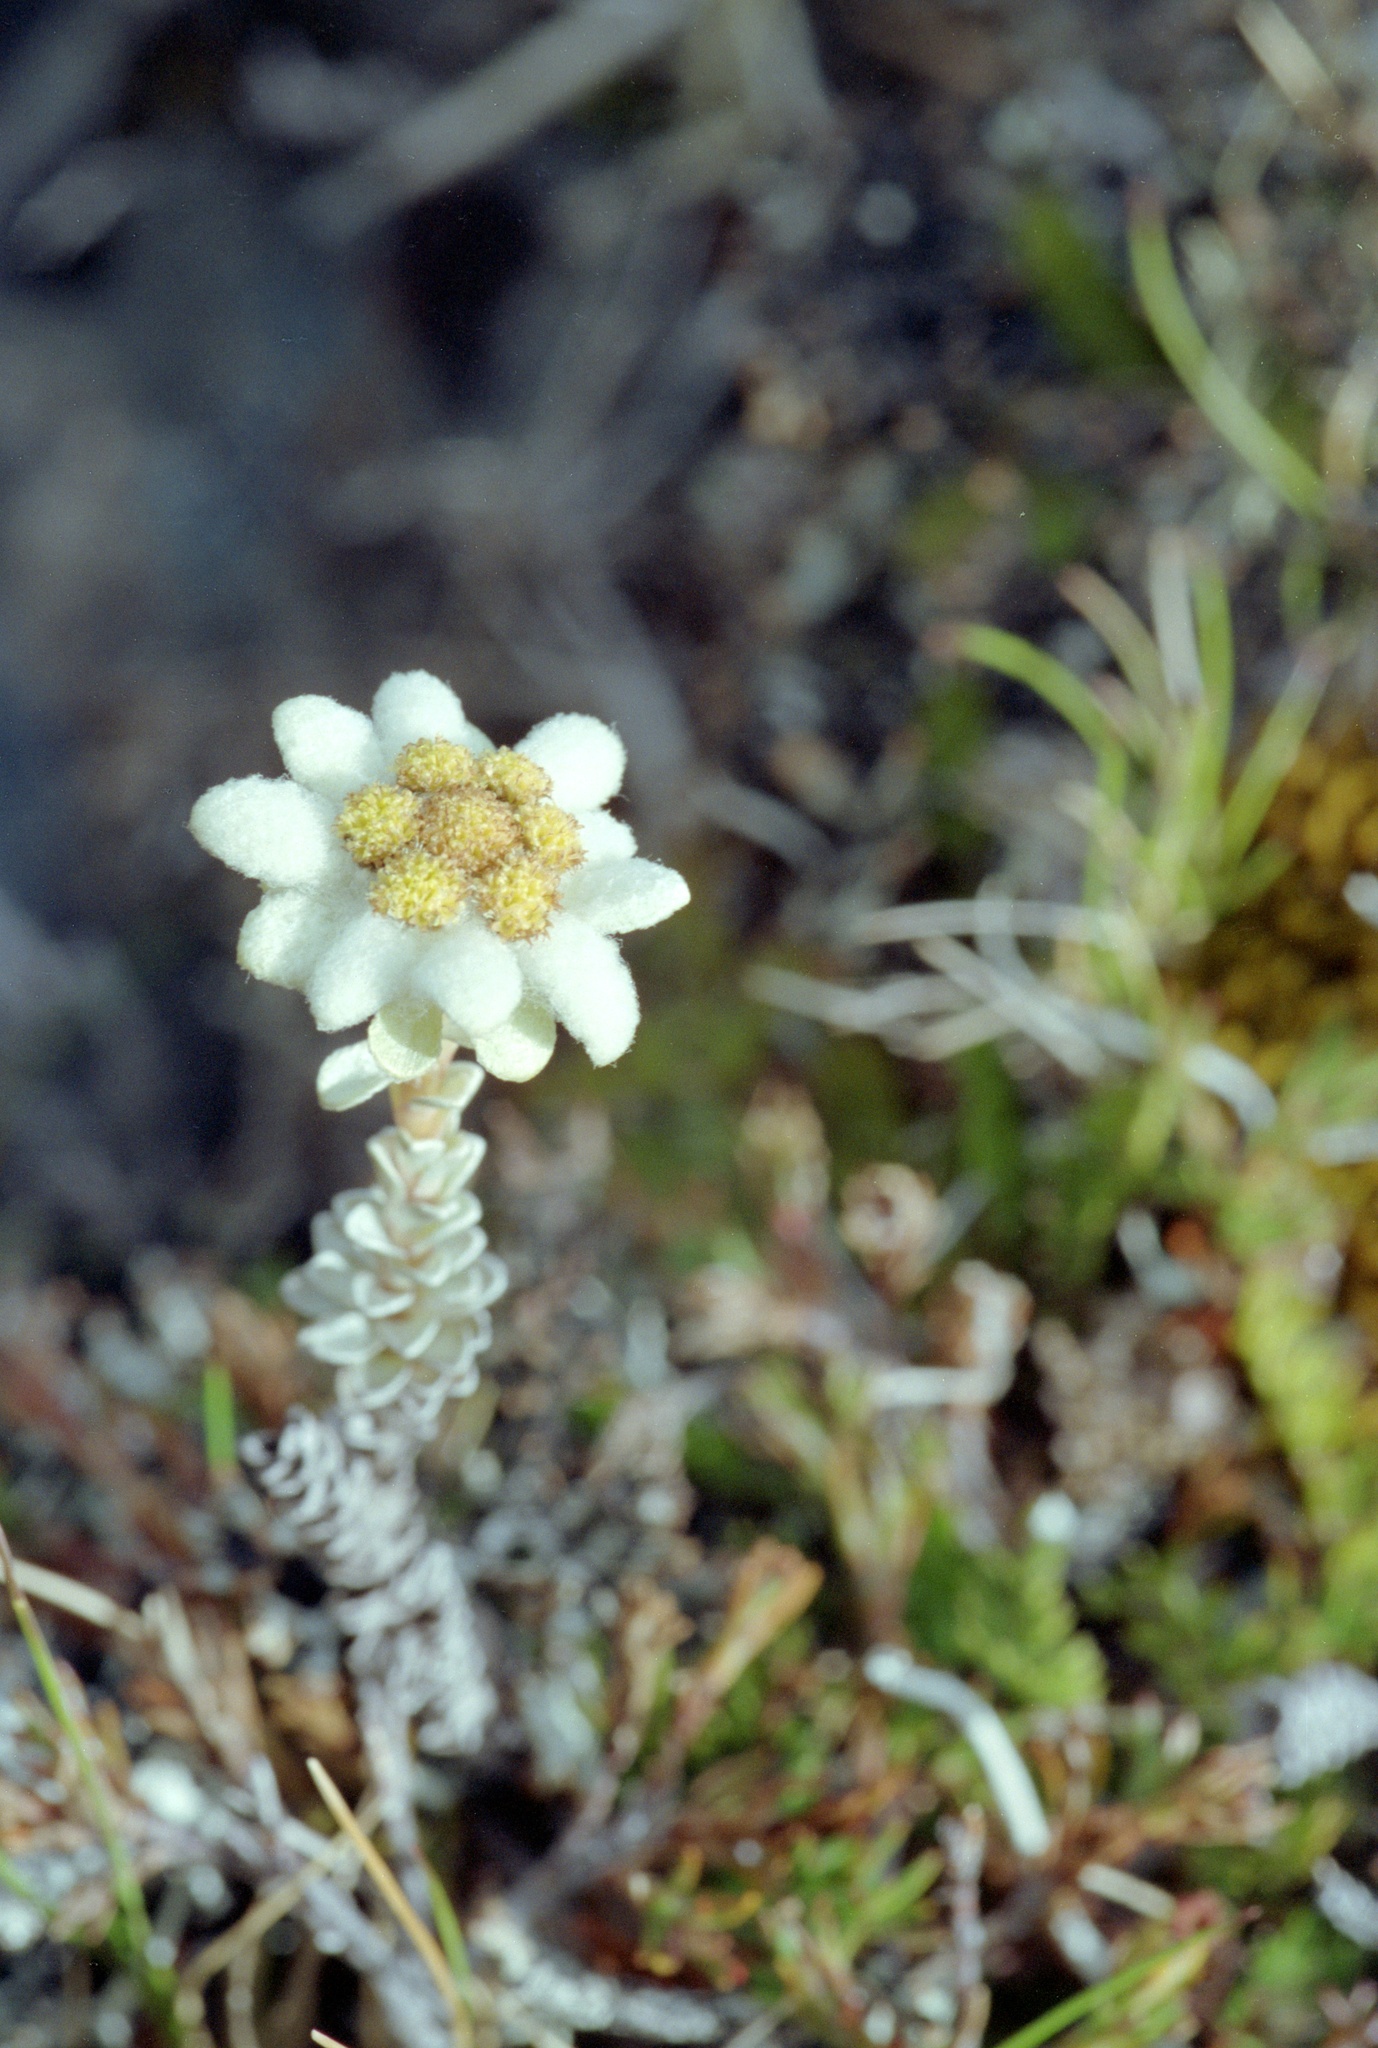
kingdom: Plantae
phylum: Tracheophyta
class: Magnoliopsida
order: Asterales
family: Asteraceae
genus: Leucogenes
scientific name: Leucogenes grandiceps
